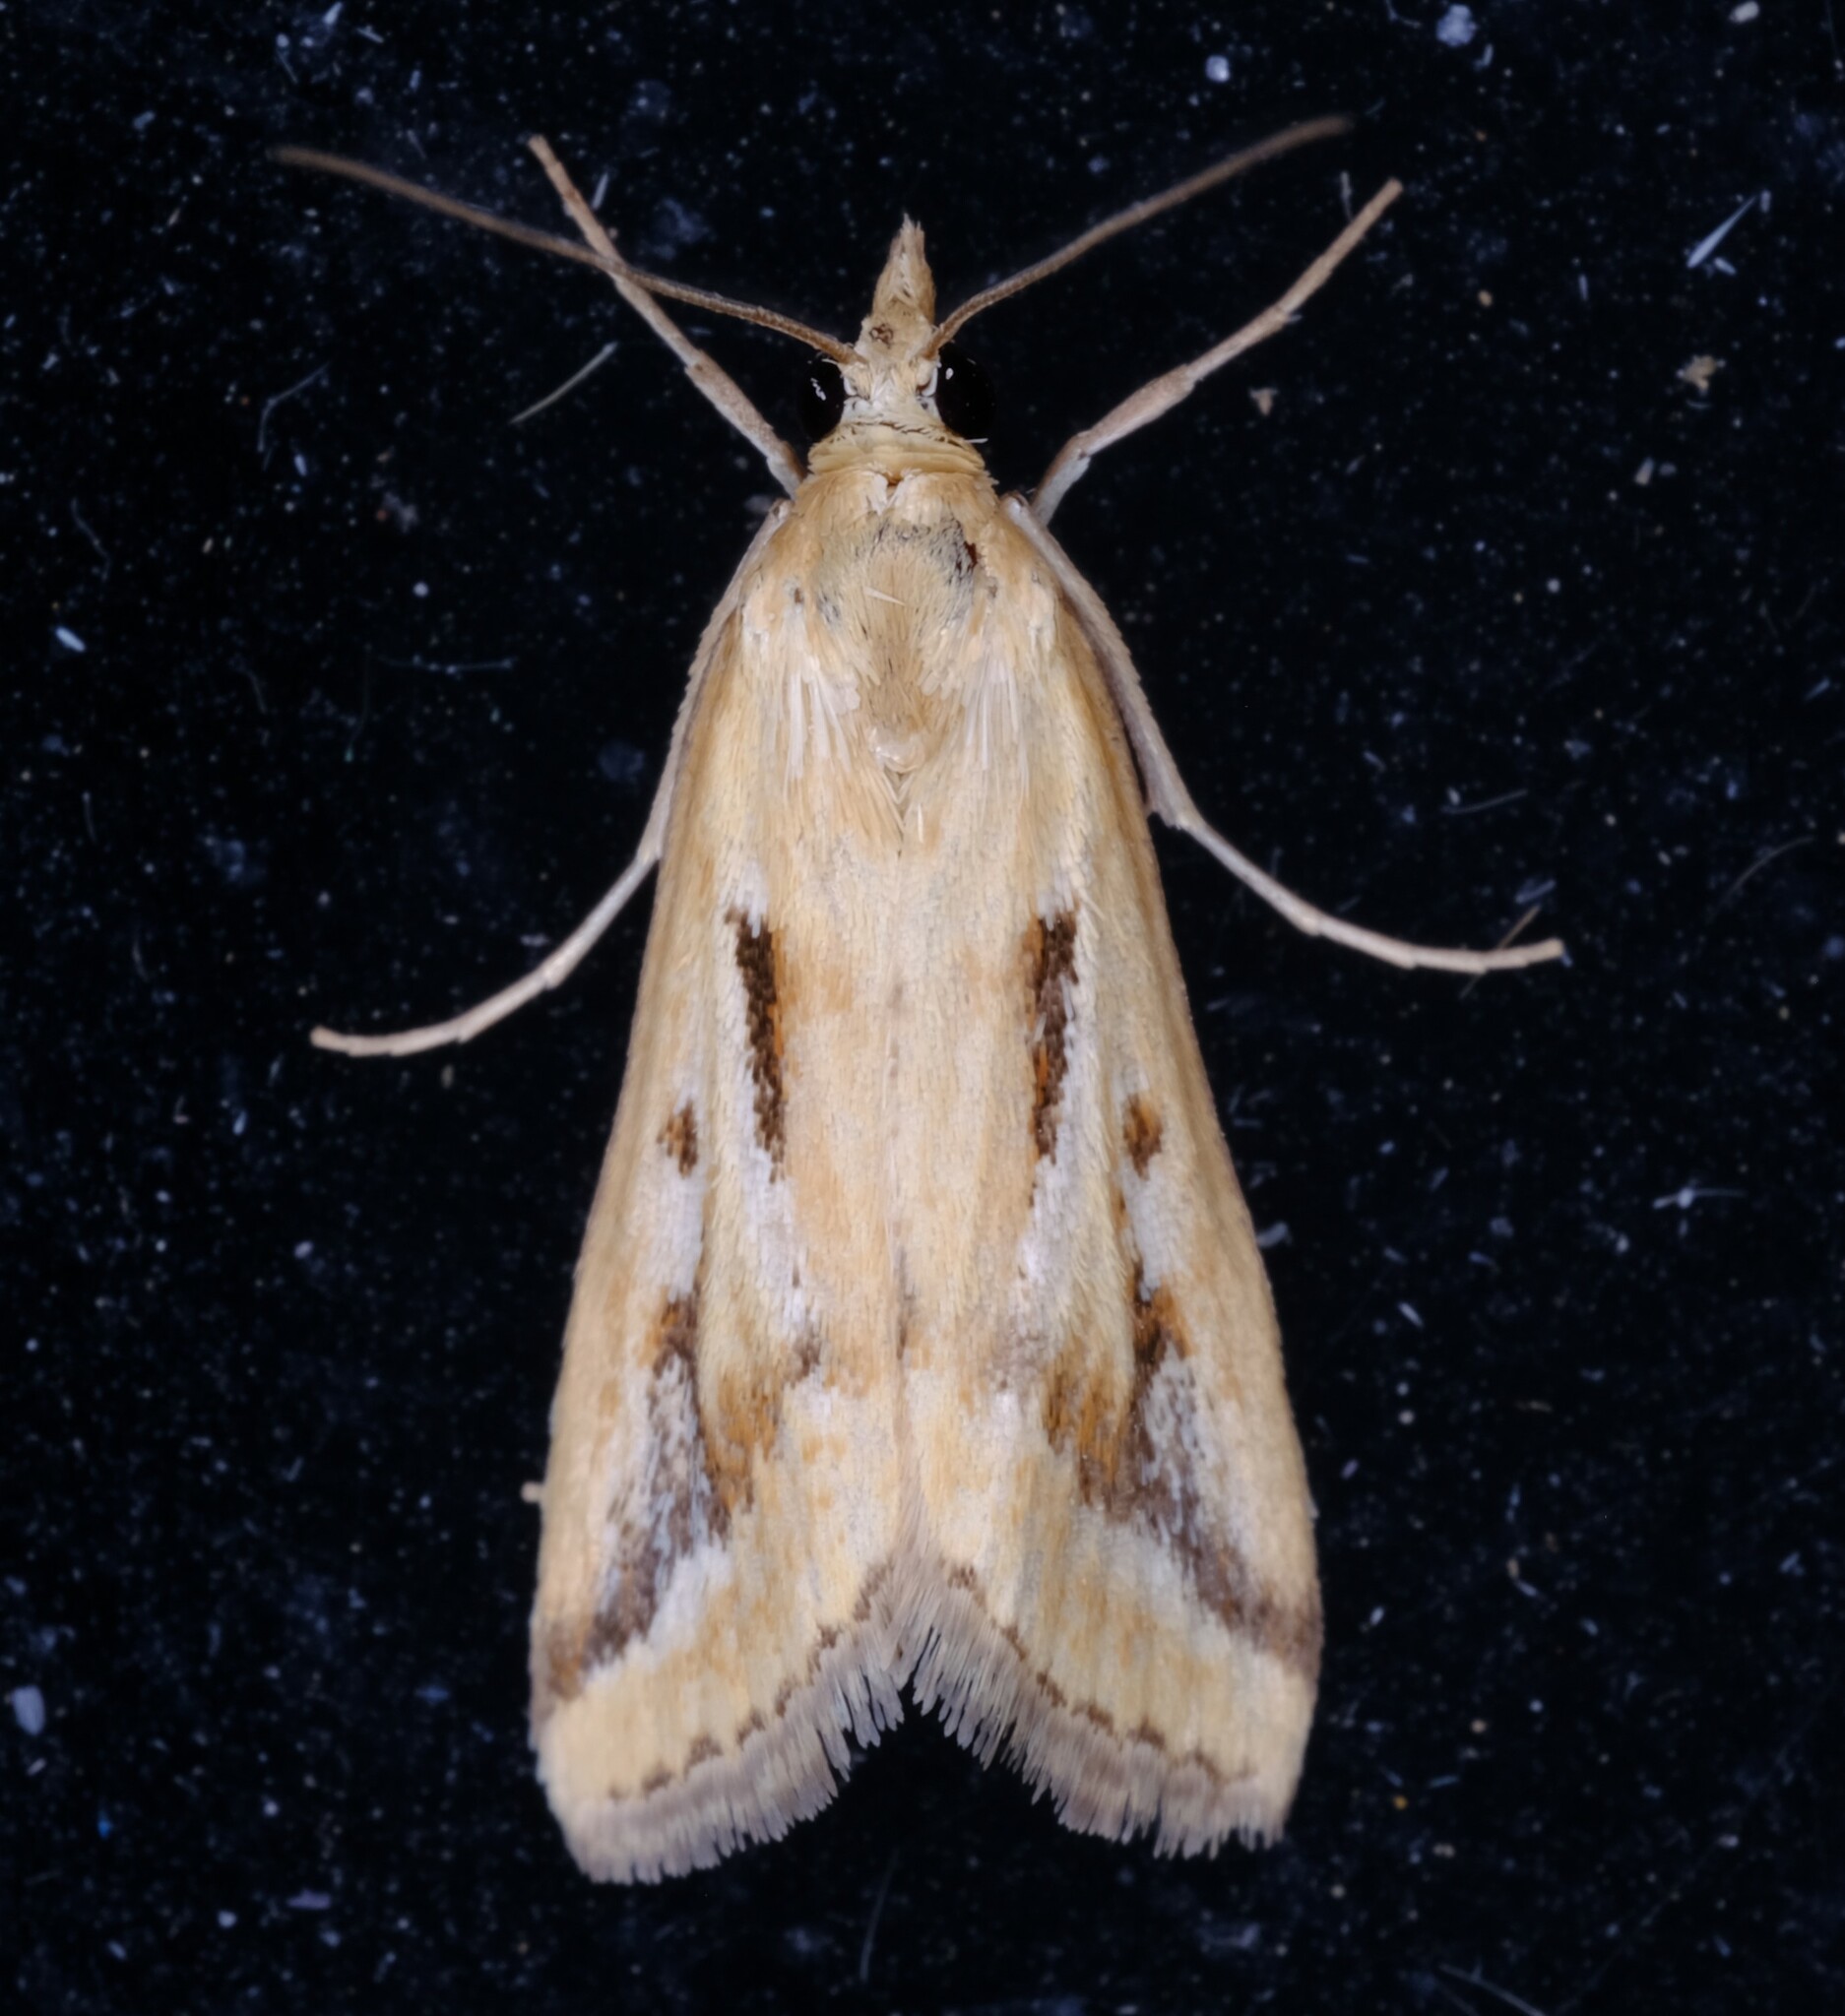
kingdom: Animalia
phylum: Arthropoda
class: Insecta
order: Lepidoptera
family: Crambidae
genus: Achyra
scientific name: Achyra massalis
